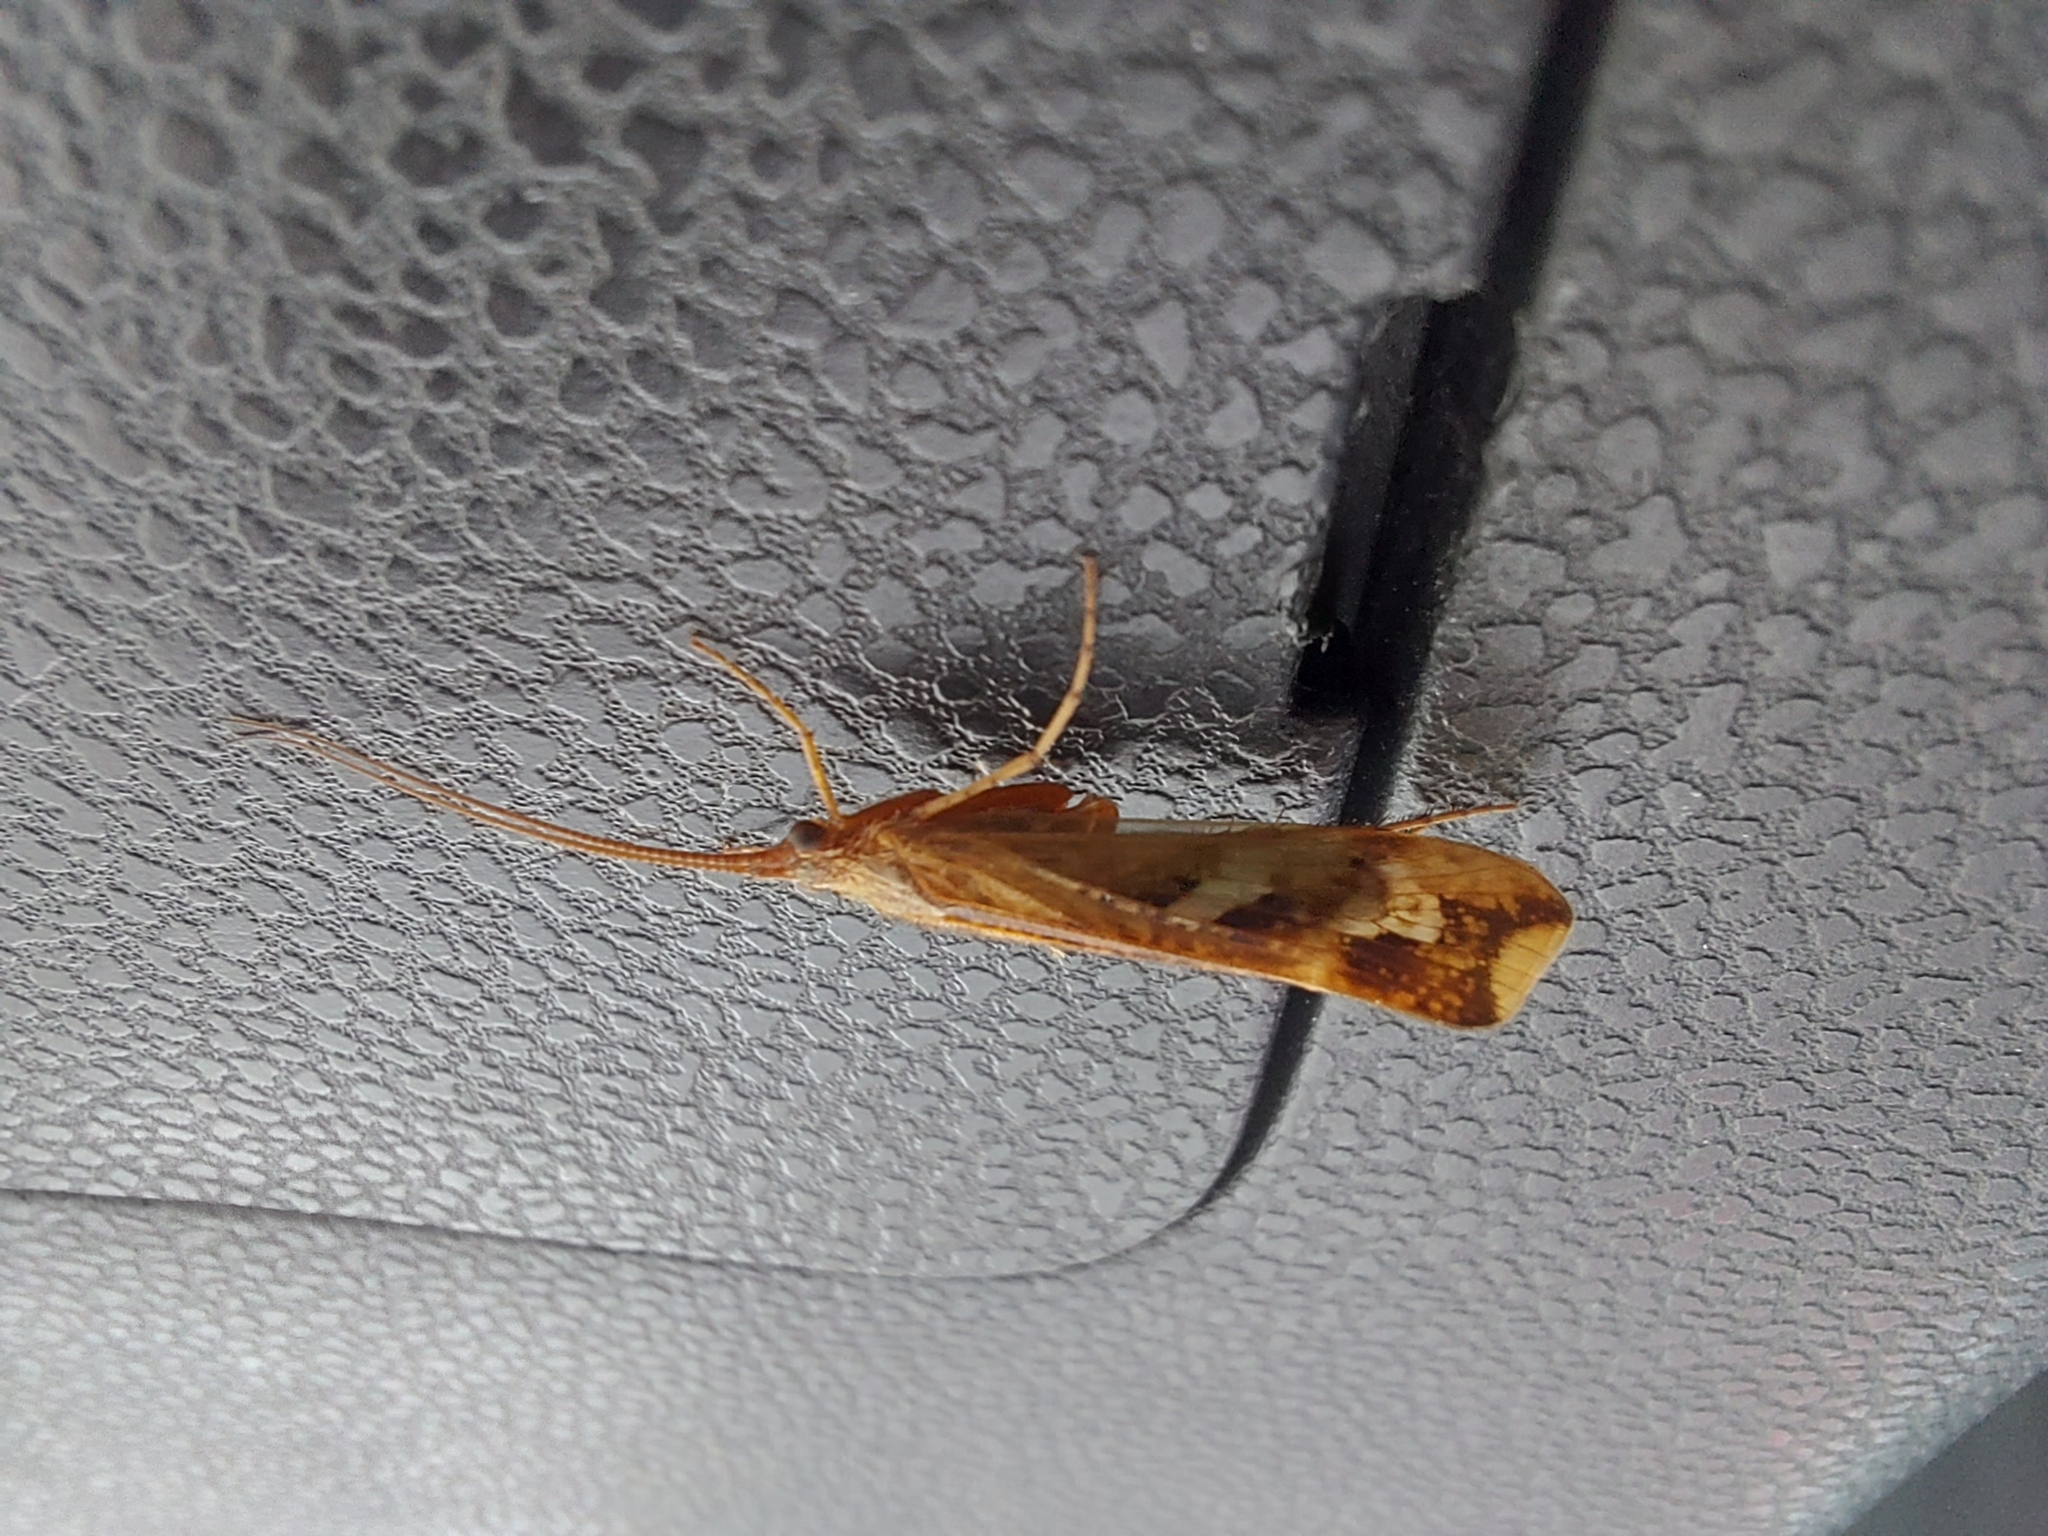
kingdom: Animalia
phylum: Arthropoda
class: Insecta
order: Trichoptera
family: Limnephilidae
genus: Limnephilus
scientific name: Limnephilus lunatus
